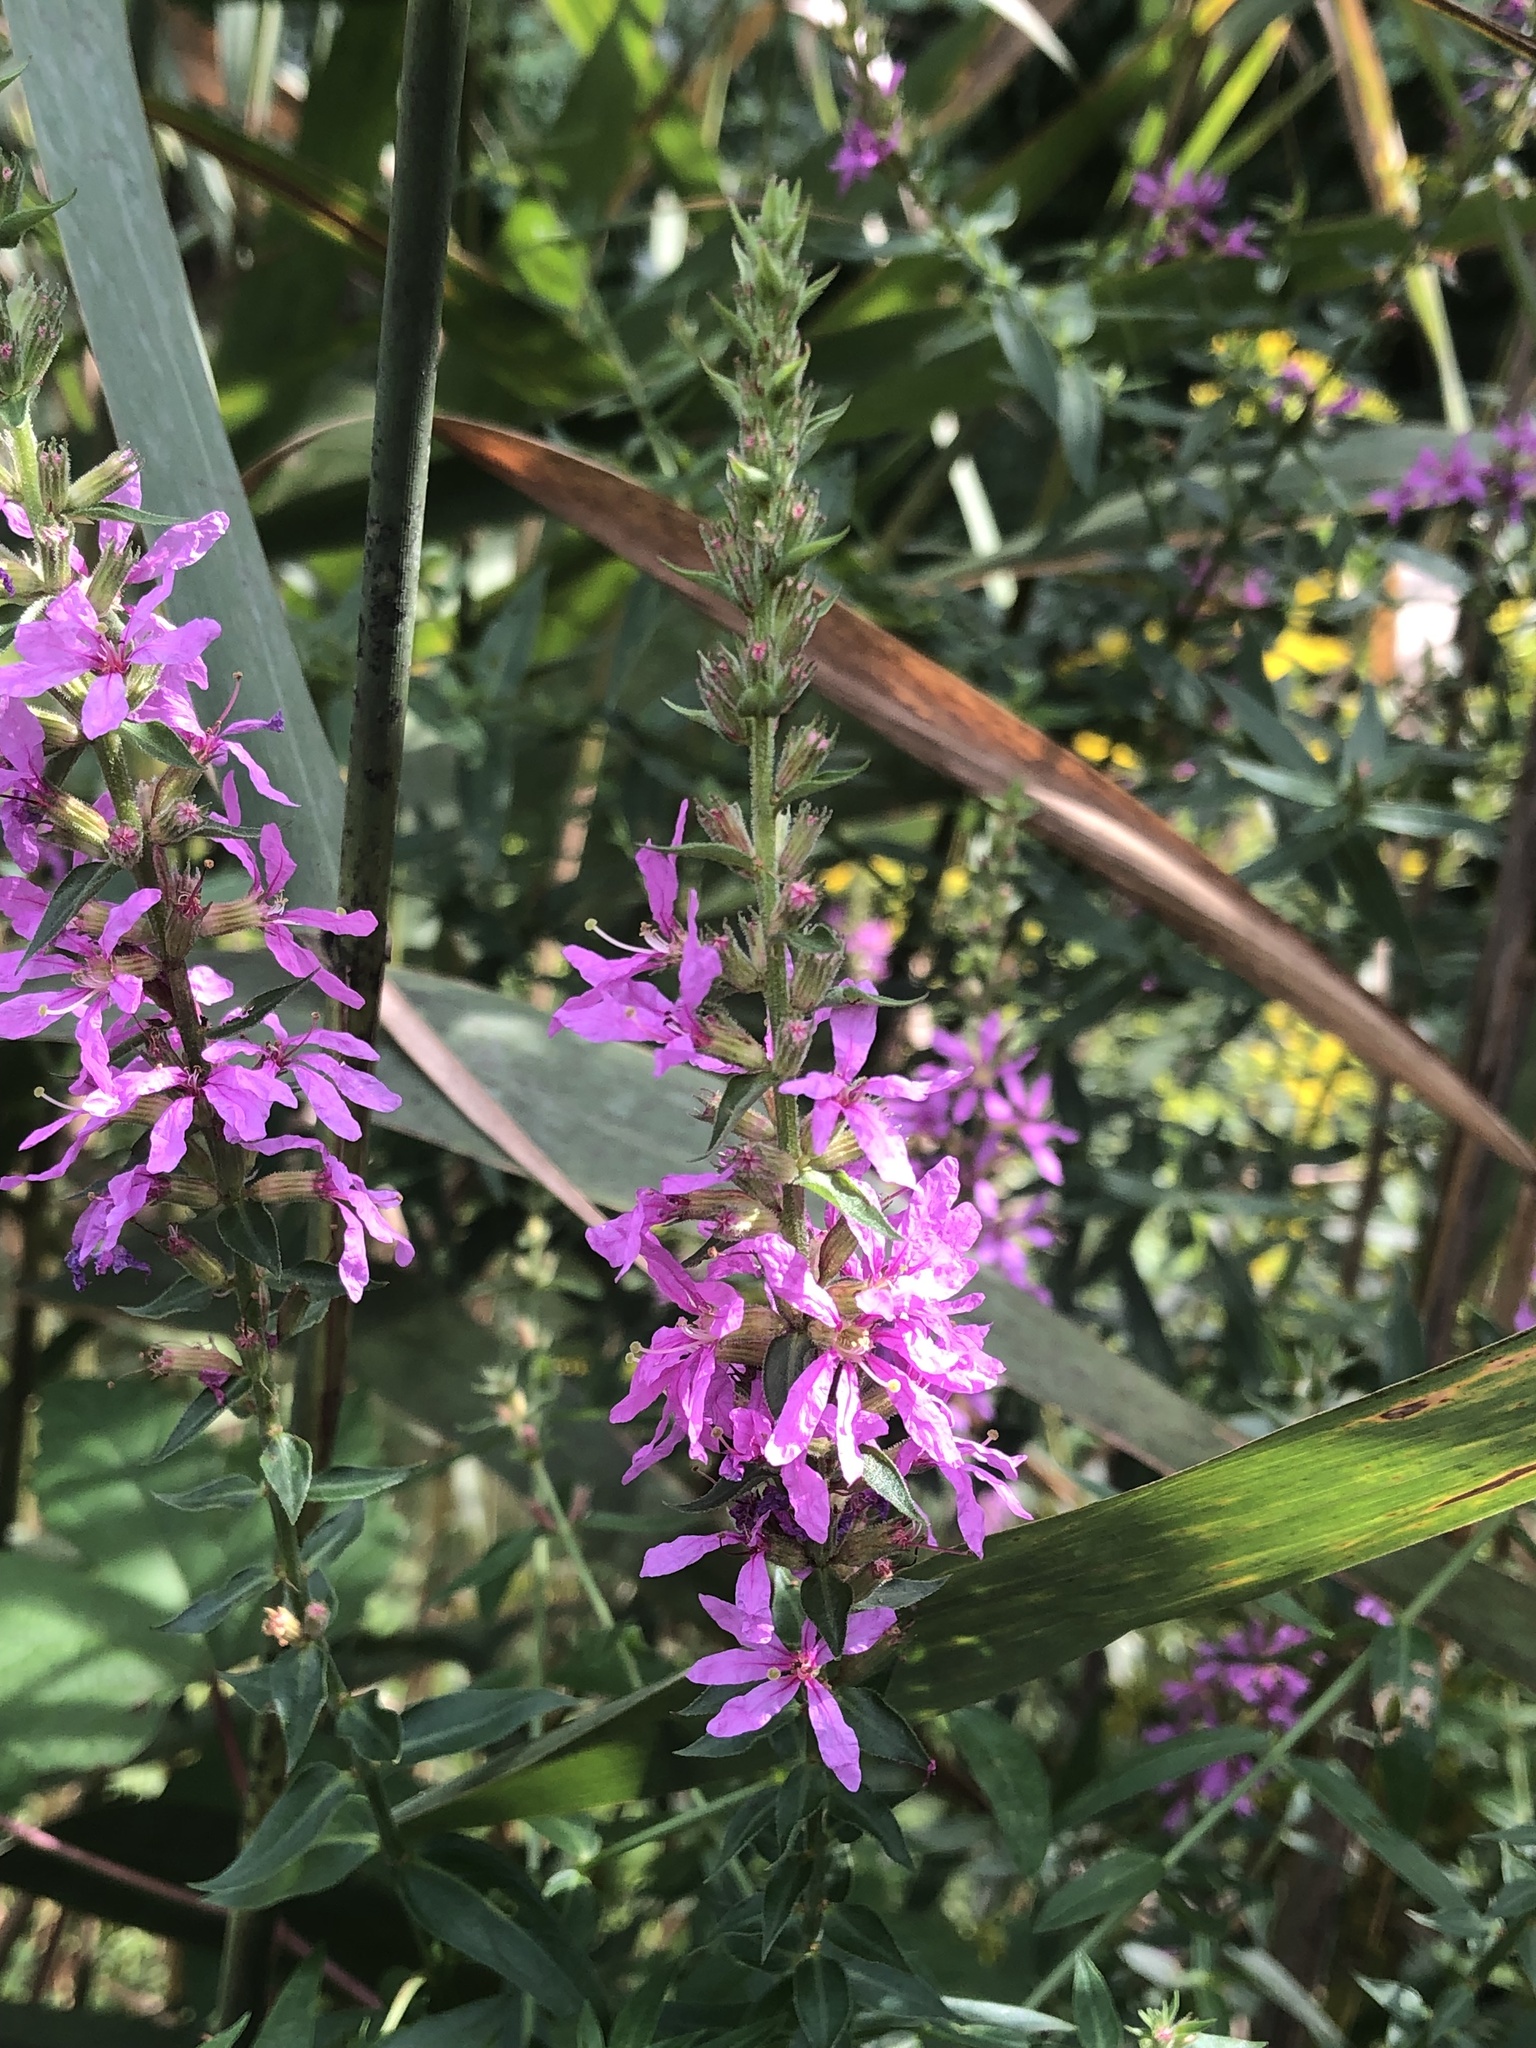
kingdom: Plantae
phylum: Tracheophyta
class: Magnoliopsida
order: Myrtales
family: Lythraceae
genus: Lythrum
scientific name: Lythrum salicaria
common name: Purple loosestrife
